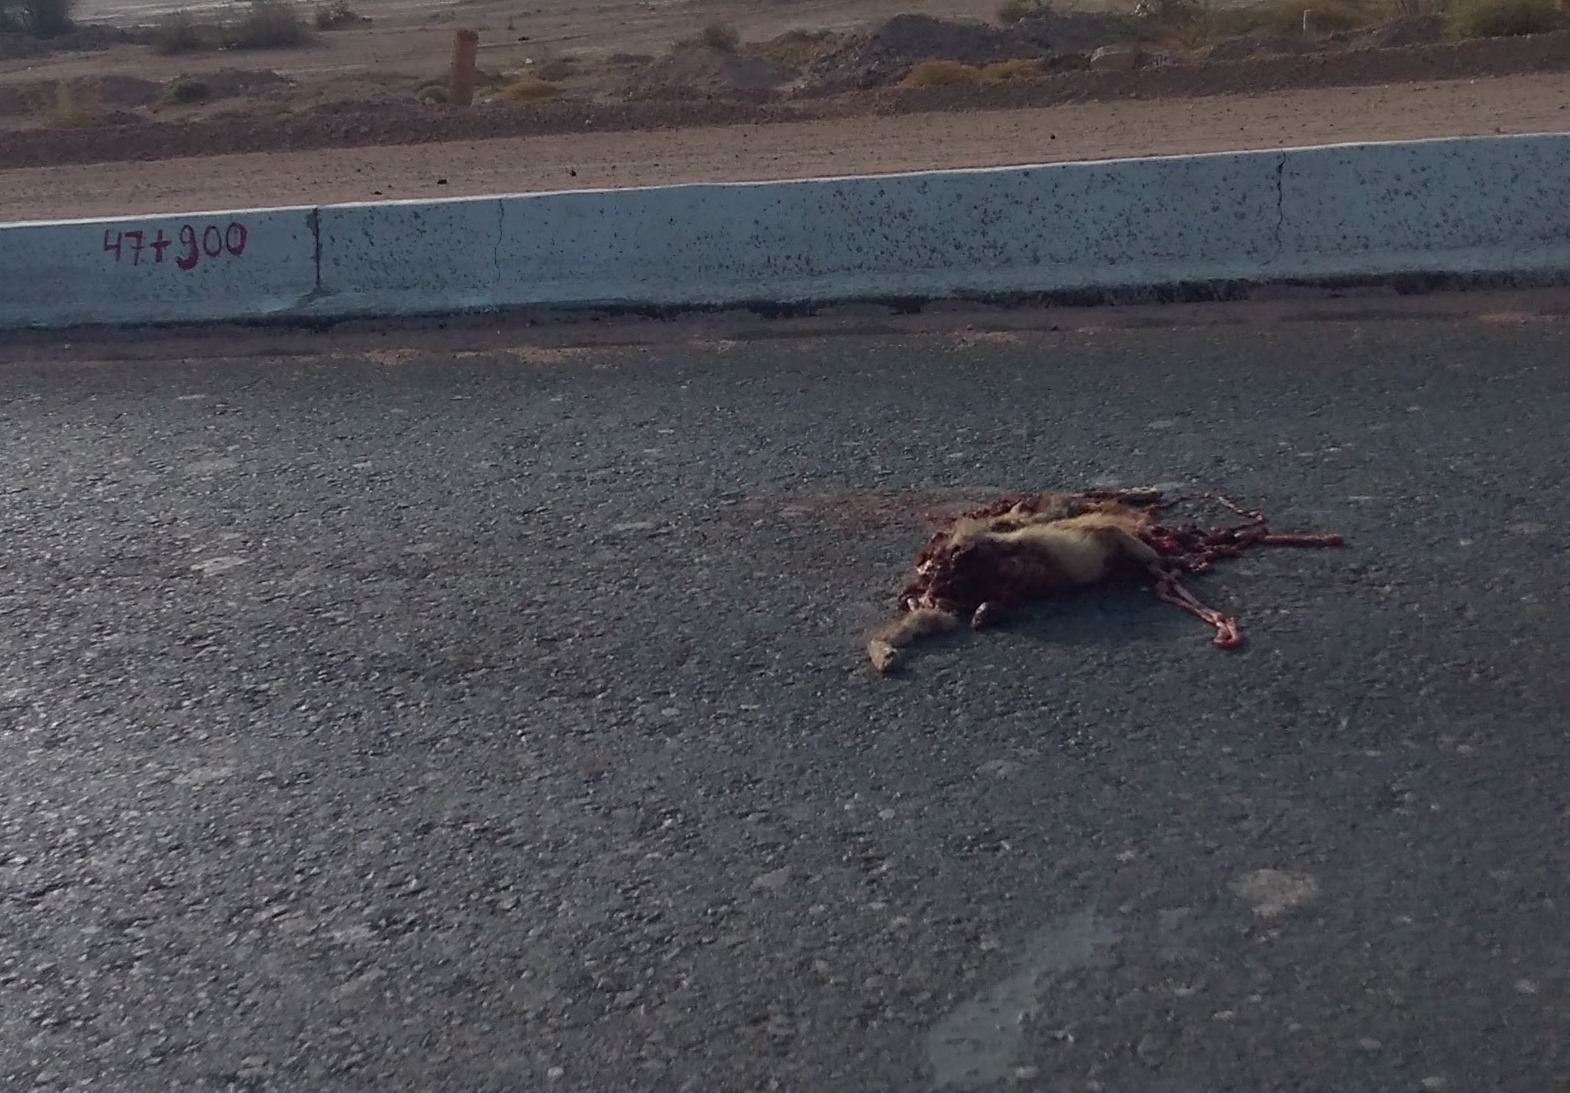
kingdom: Animalia
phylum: Chordata
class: Mammalia
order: Carnivora
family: Canidae
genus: Canis
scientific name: Canis aureus
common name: Golden jackal
